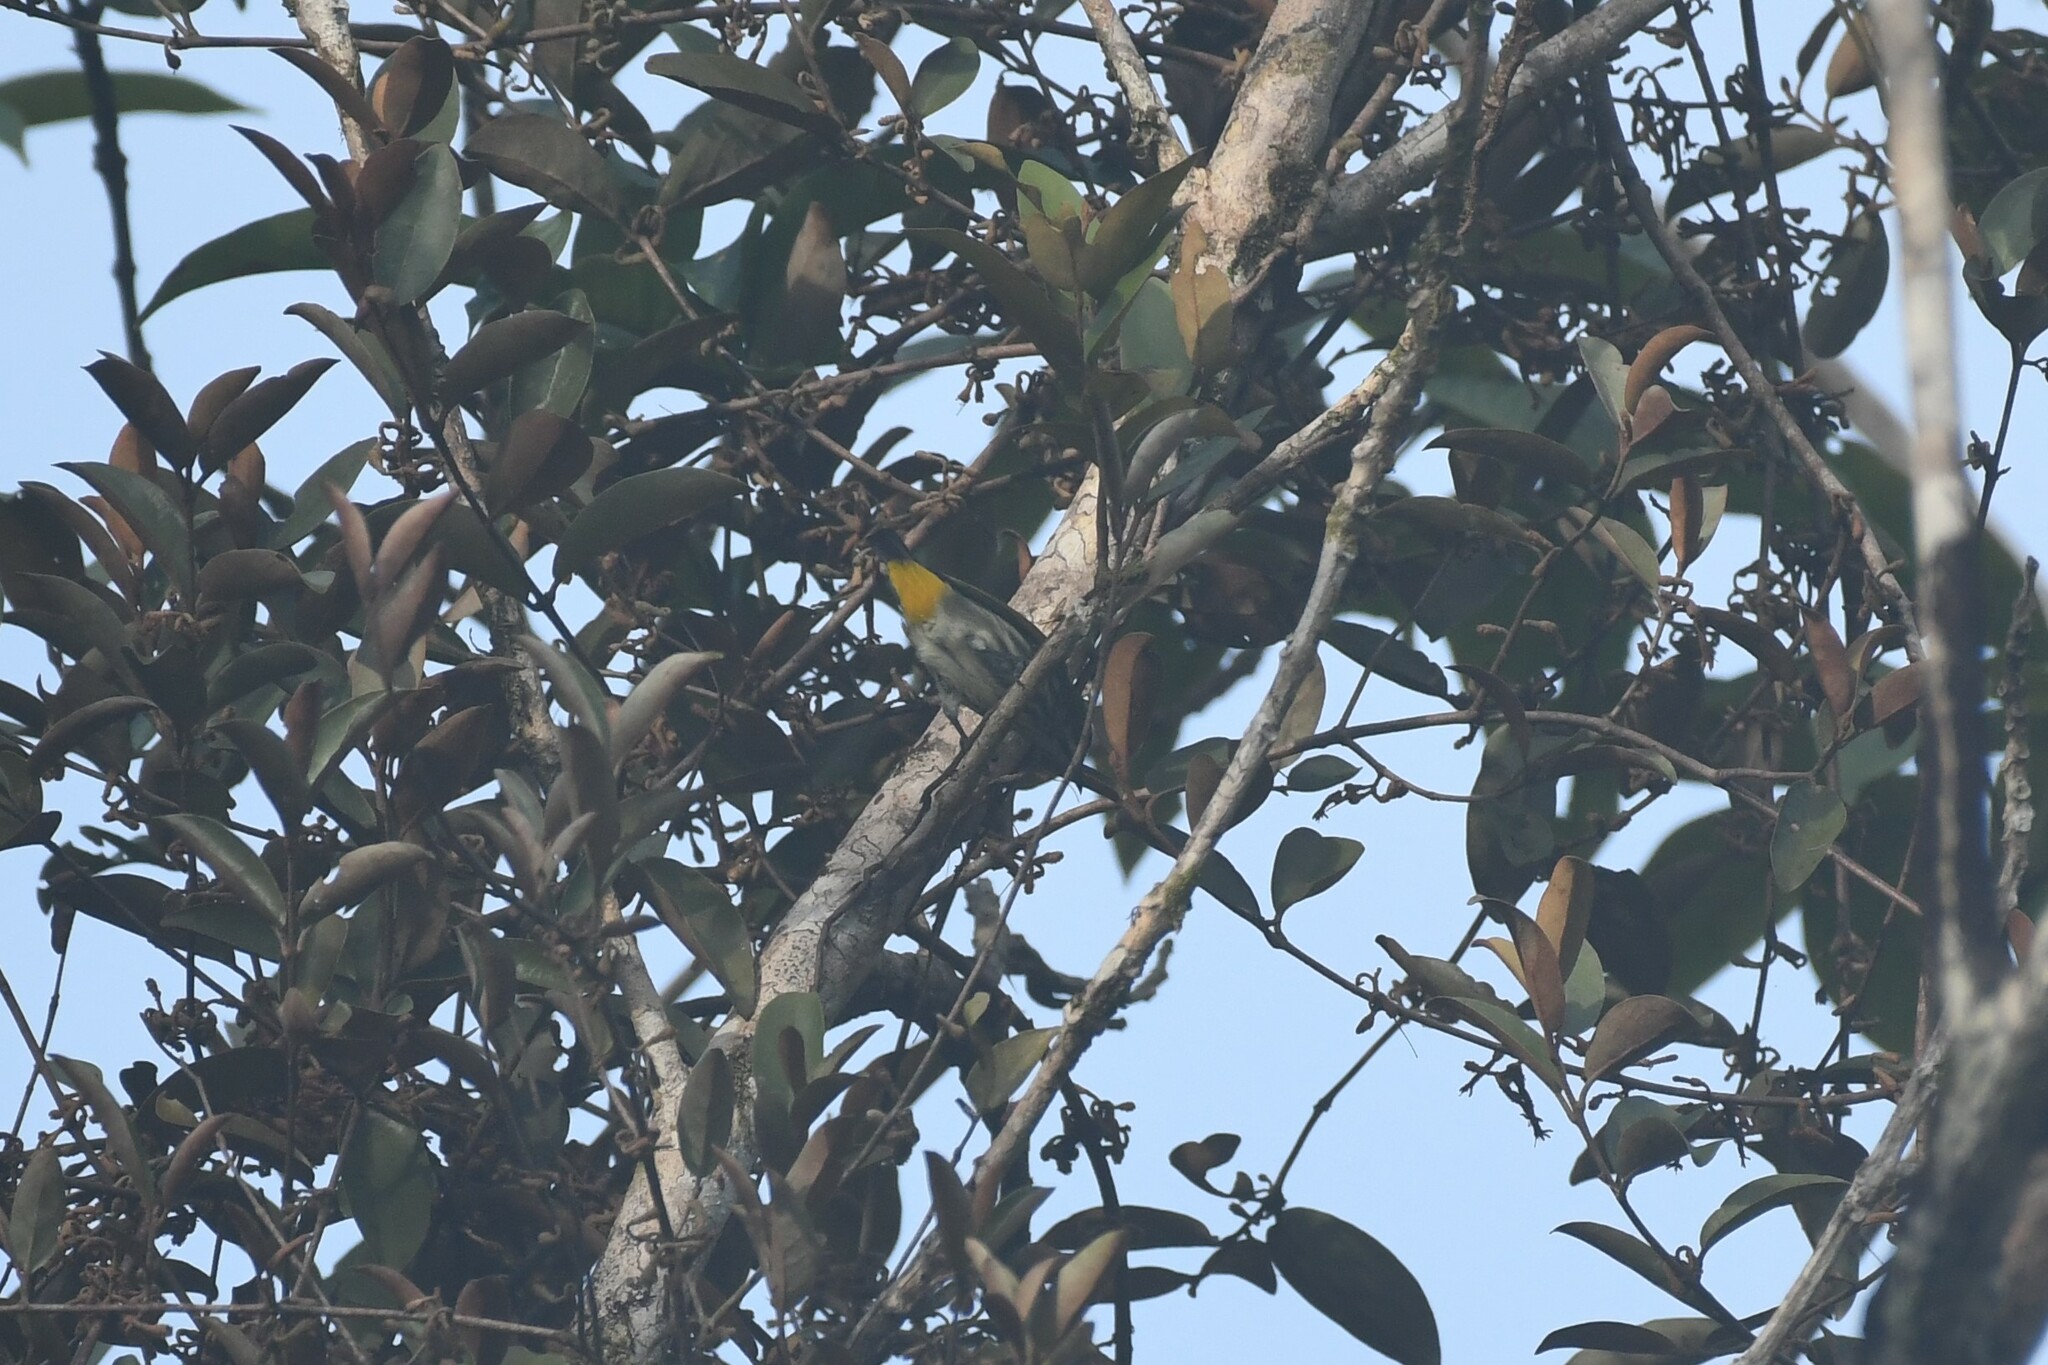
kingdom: Animalia
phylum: Chordata
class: Aves
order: Passeriformes
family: Dicaeidae
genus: Dicaeum
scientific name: Dicaeum chrysorrheum
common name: Yellow-vented flowerpecker
